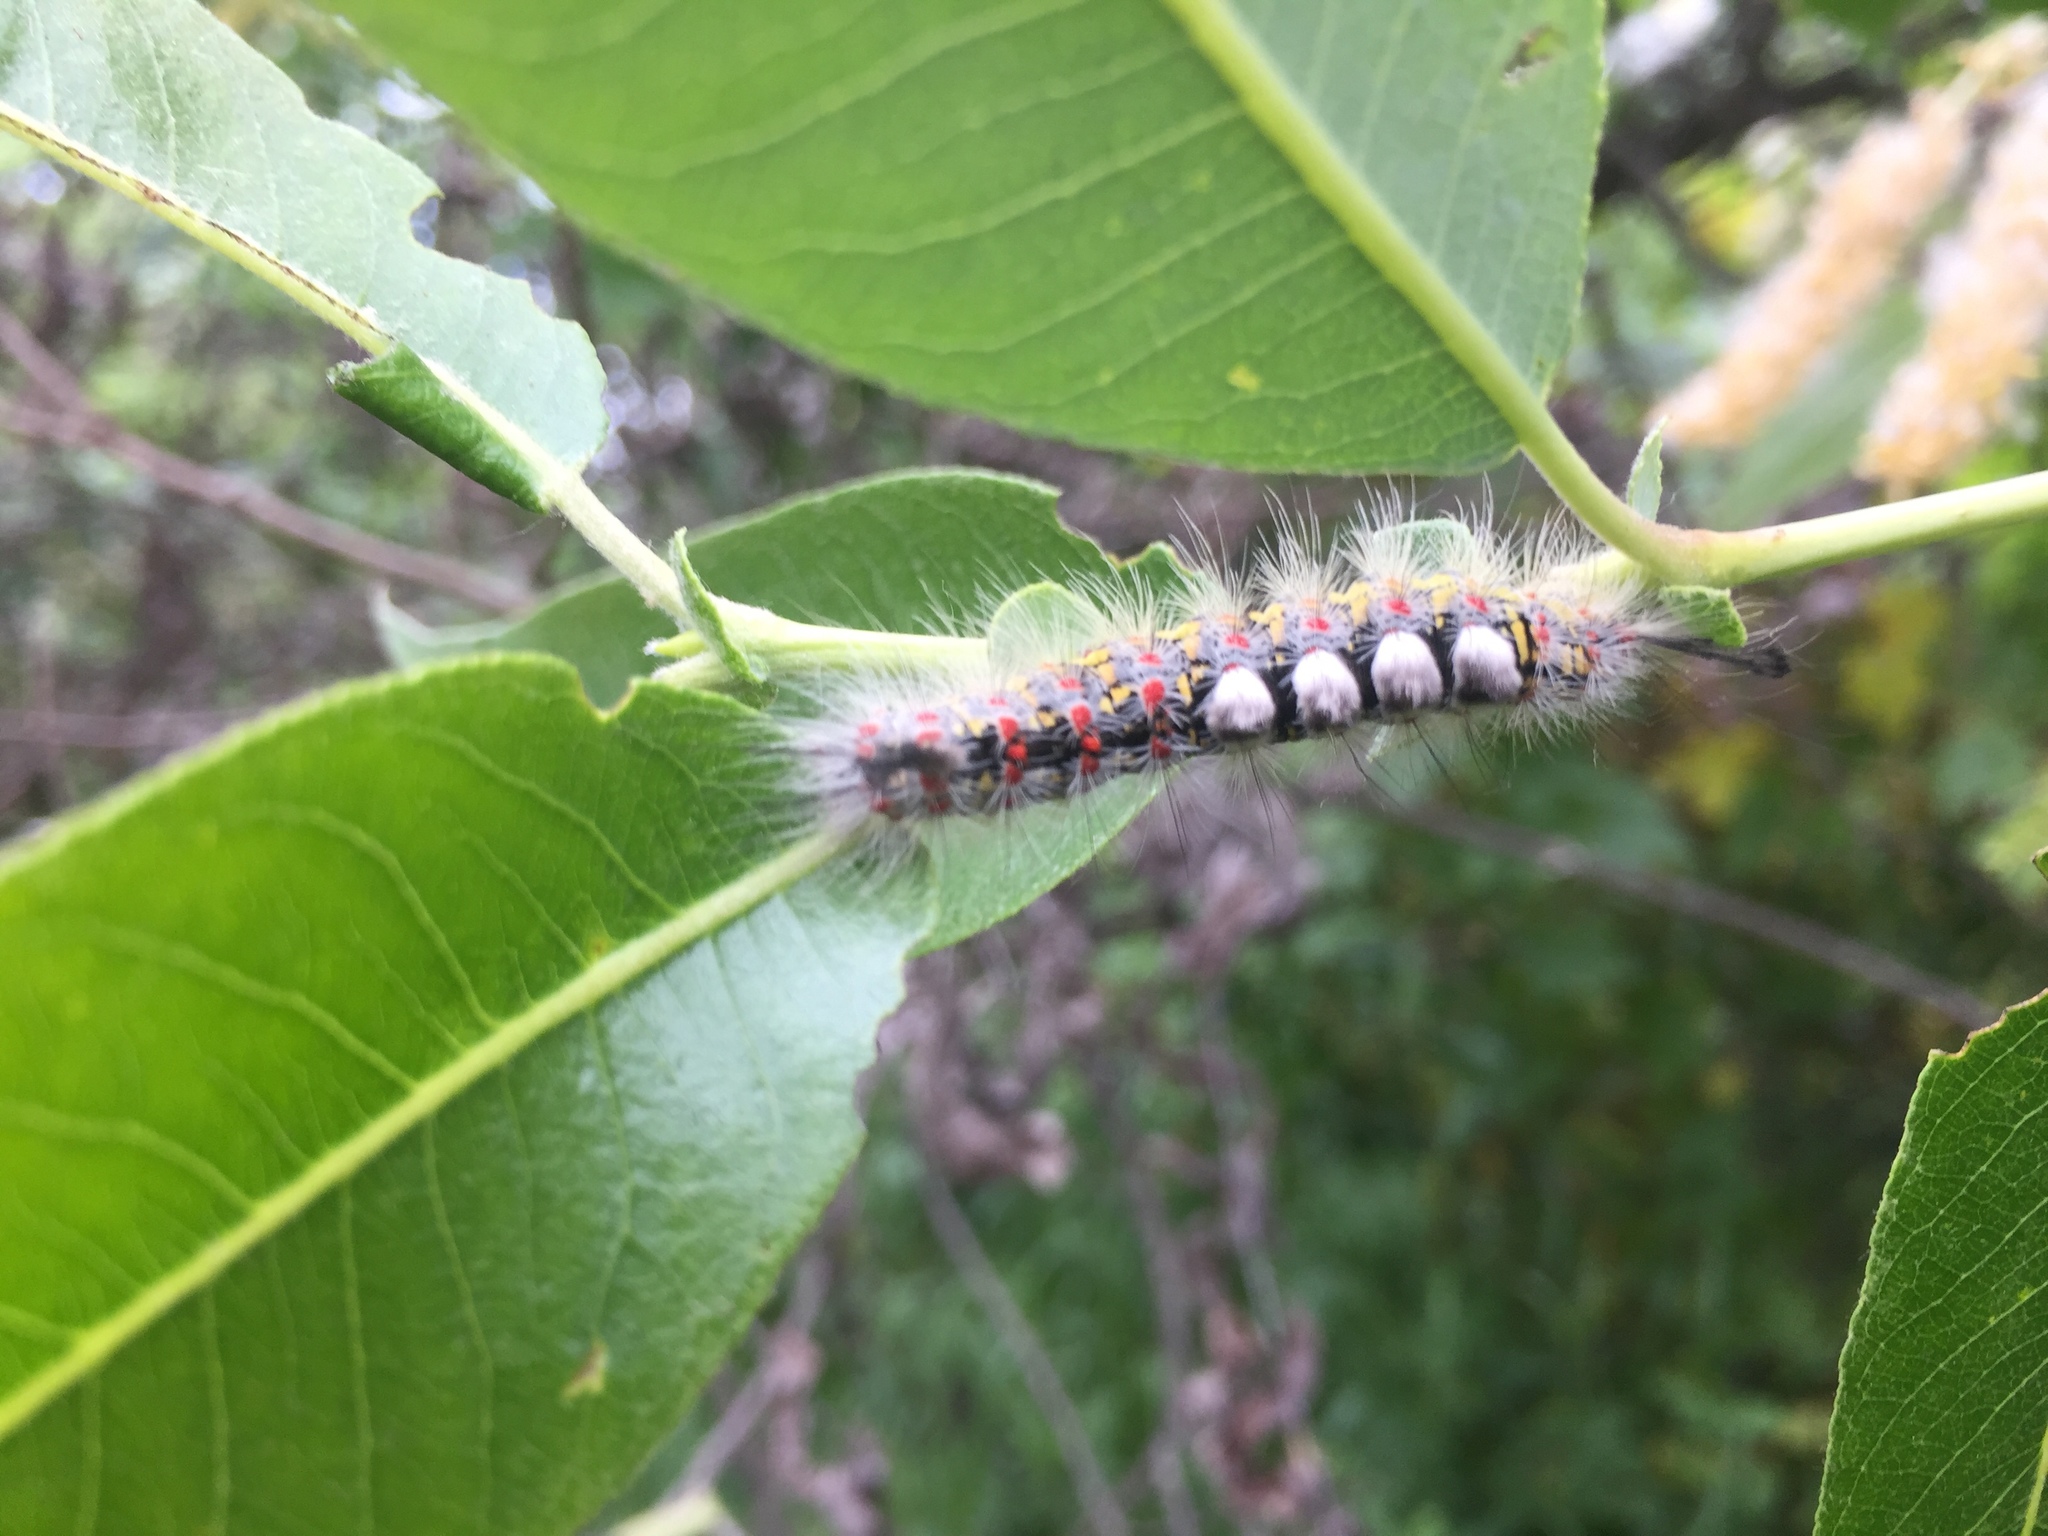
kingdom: Animalia
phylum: Arthropoda
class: Insecta
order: Lepidoptera
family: Erebidae
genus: Orgyia
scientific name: Orgyia vetusta
